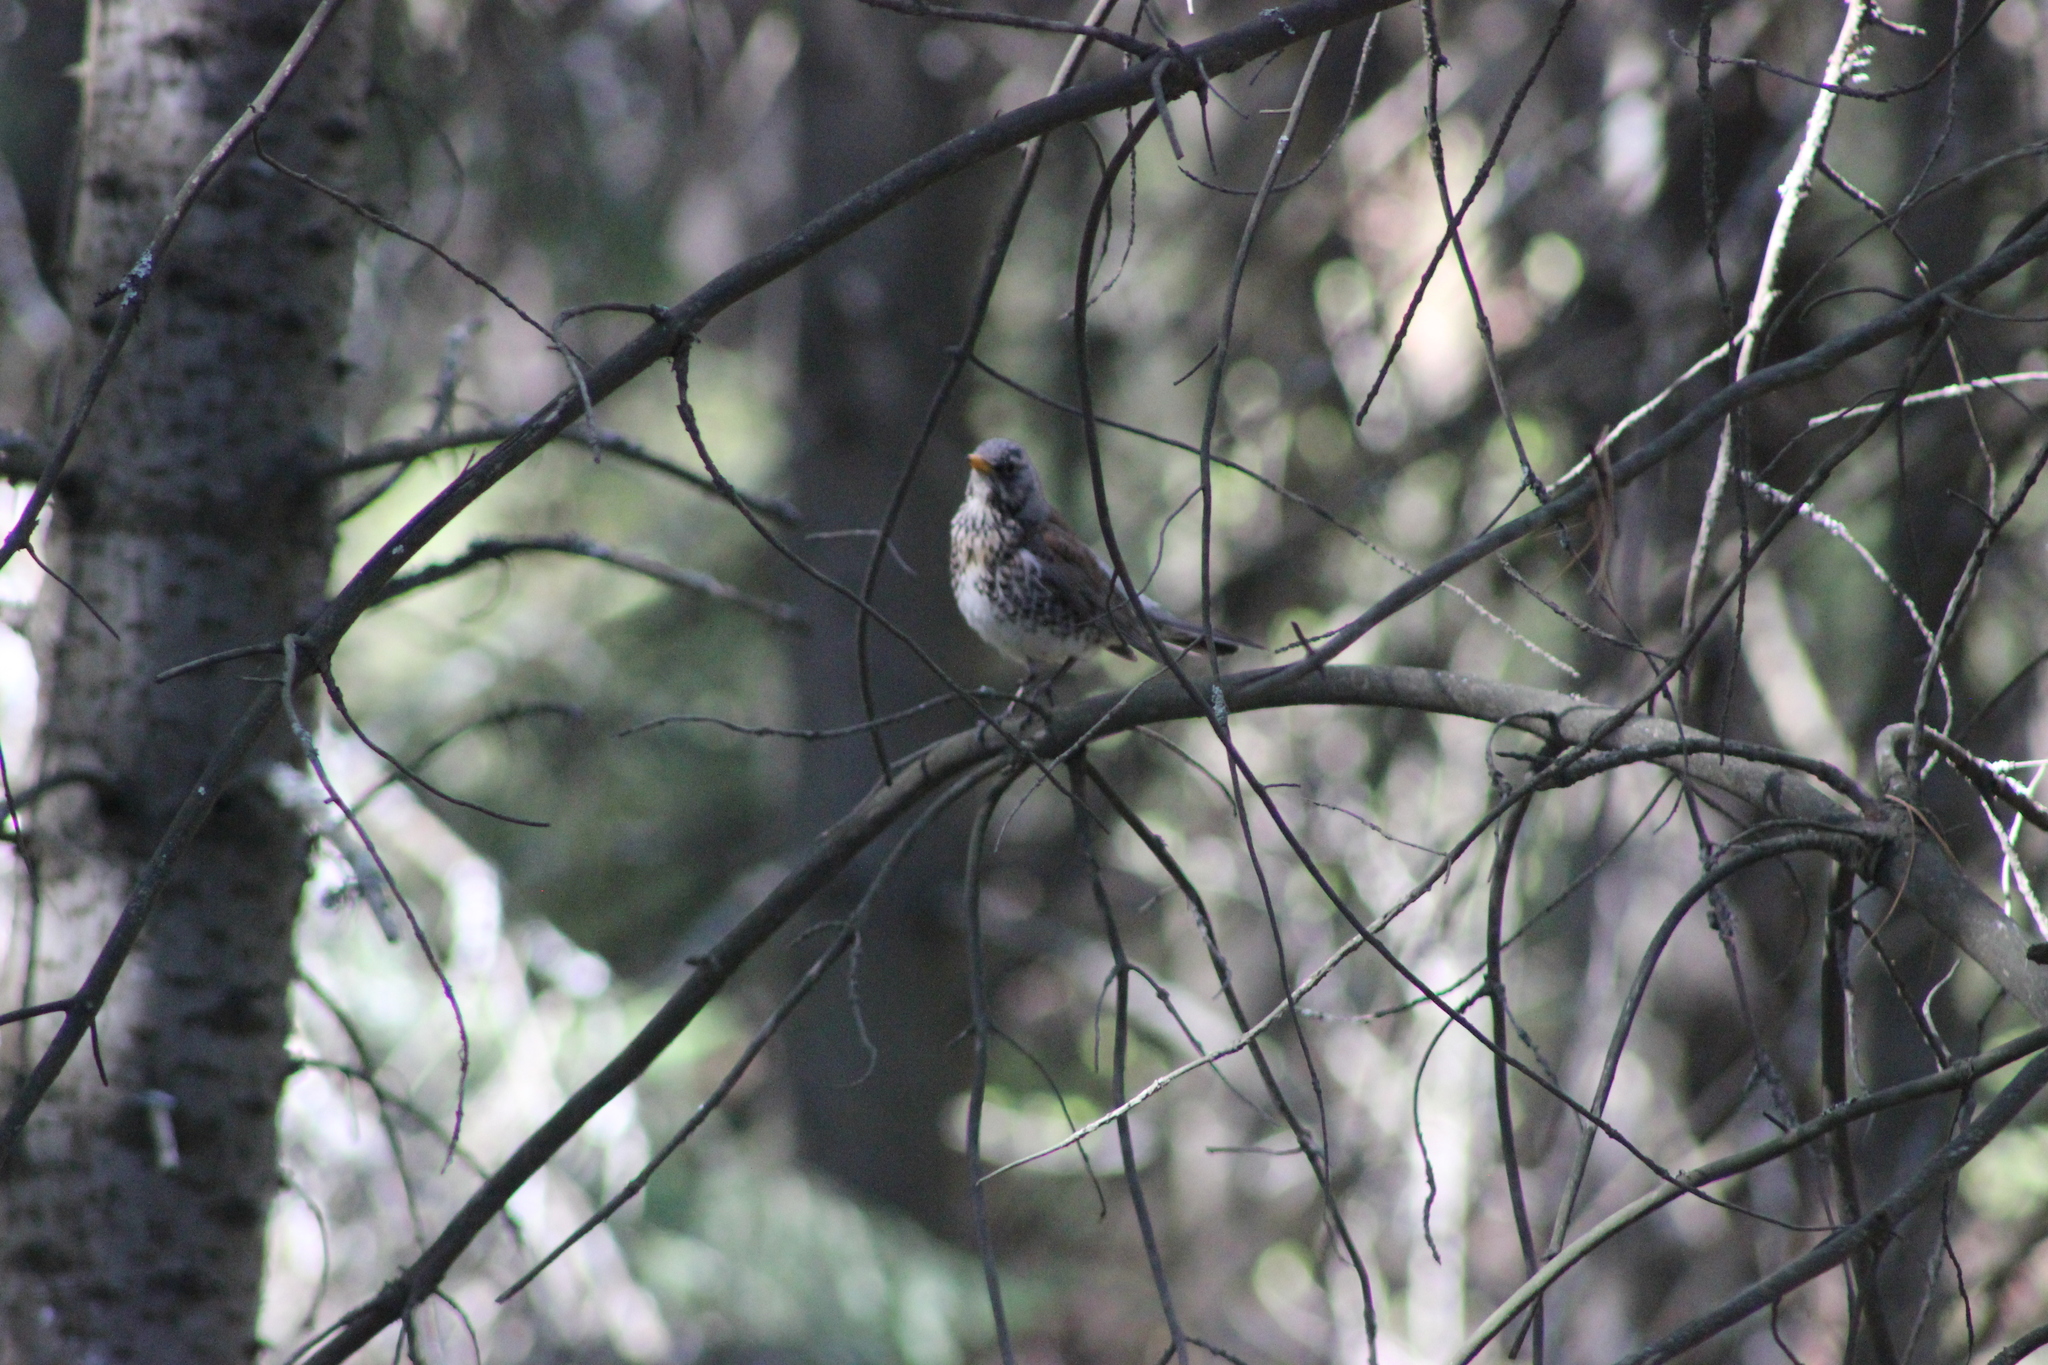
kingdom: Animalia
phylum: Chordata
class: Aves
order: Passeriformes
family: Turdidae
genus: Turdus
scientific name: Turdus pilaris
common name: Fieldfare
